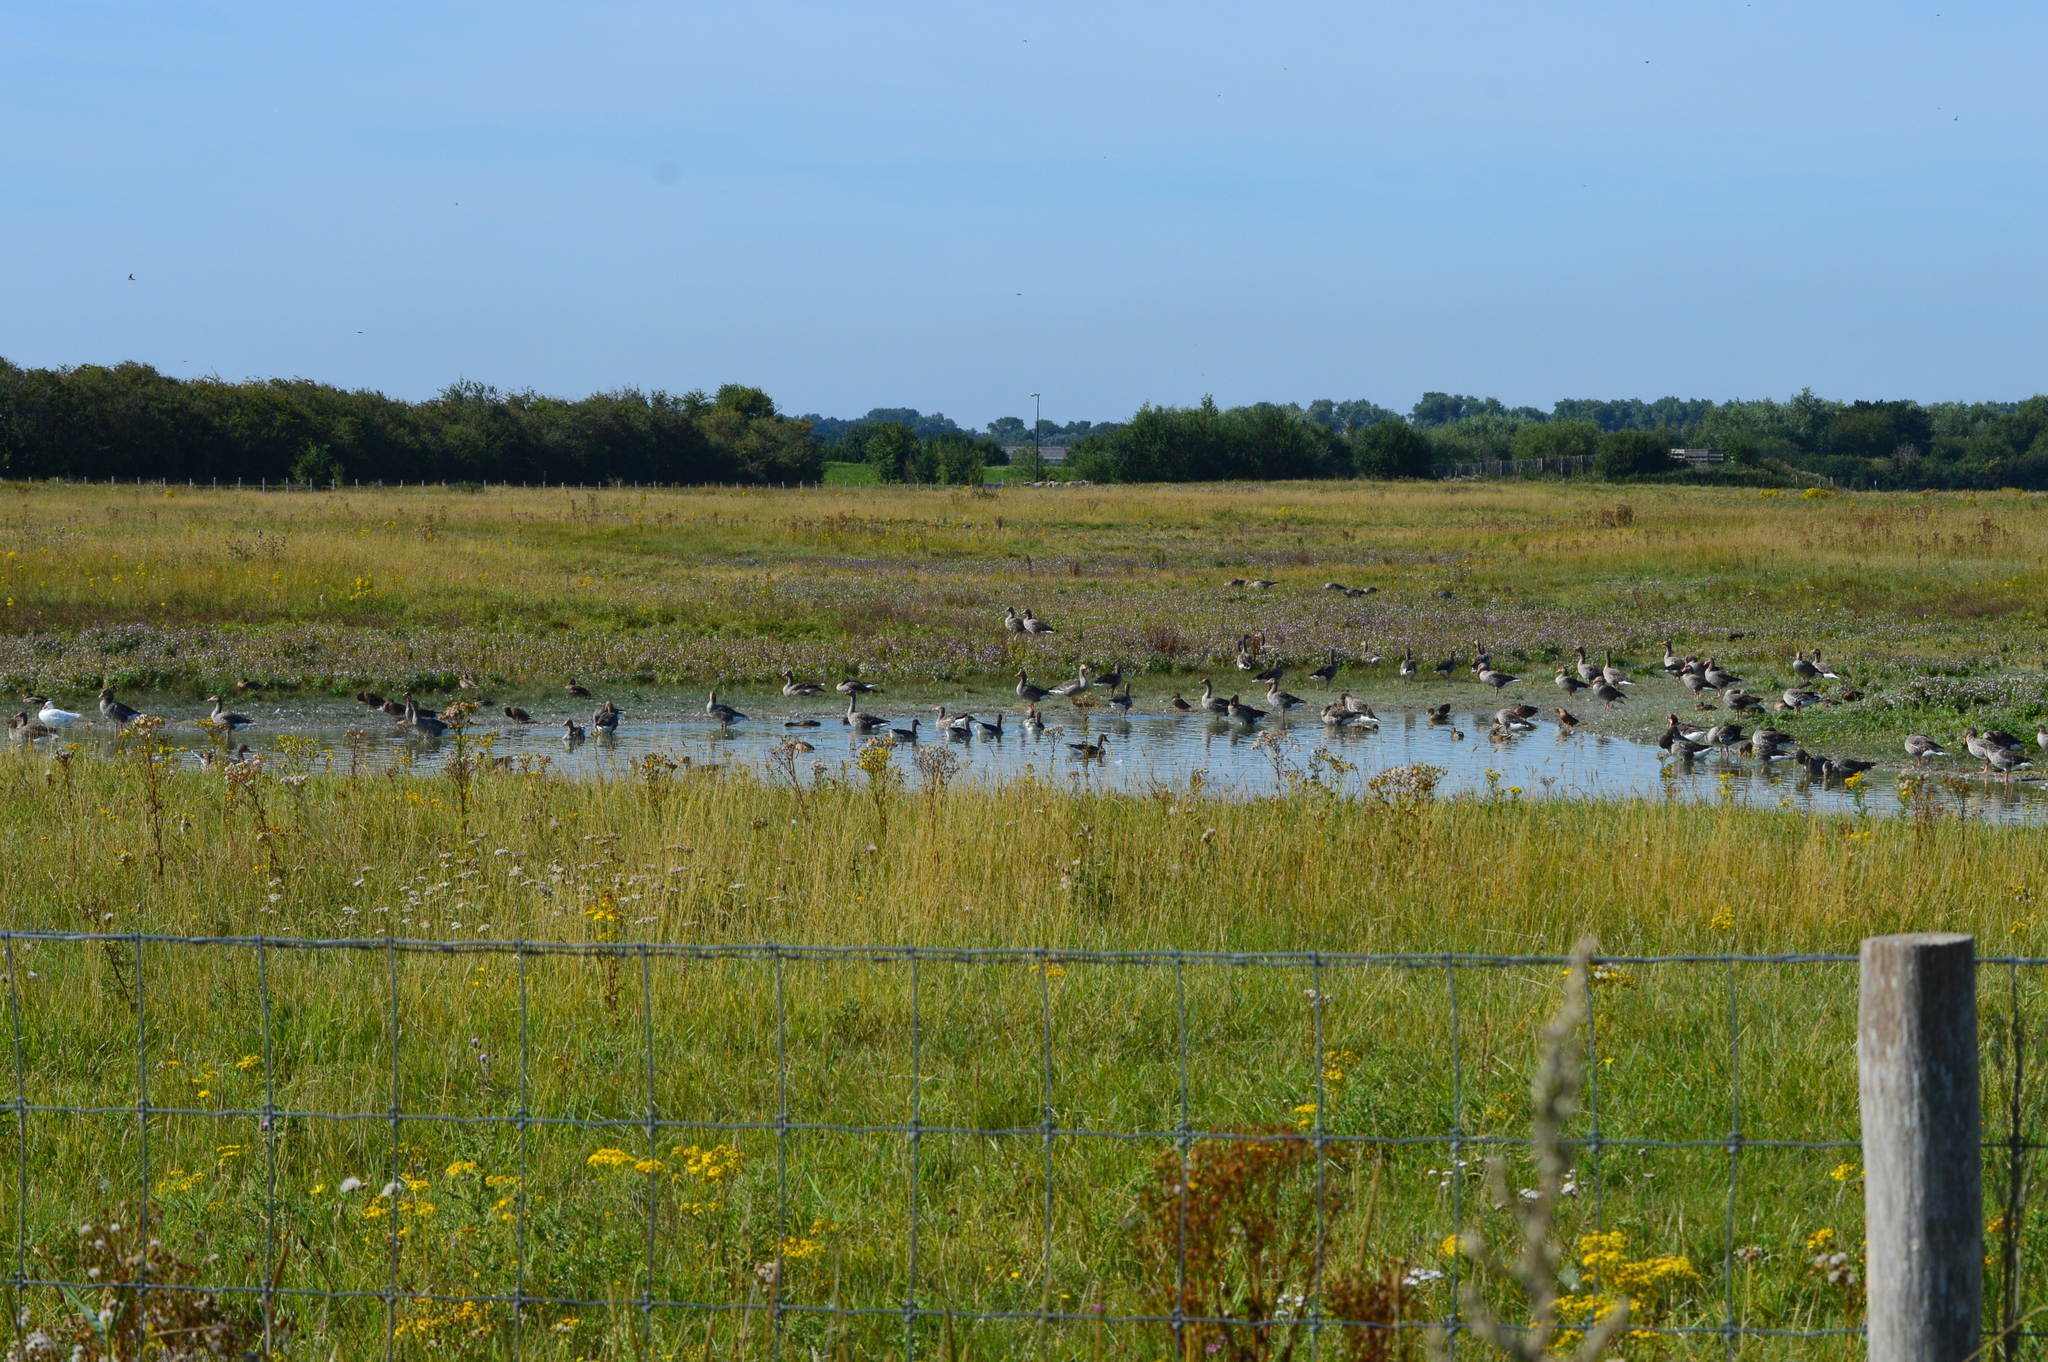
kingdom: Animalia
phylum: Chordata
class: Aves
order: Anseriformes
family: Anatidae
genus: Anser
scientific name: Anser anser
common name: Greylag goose
